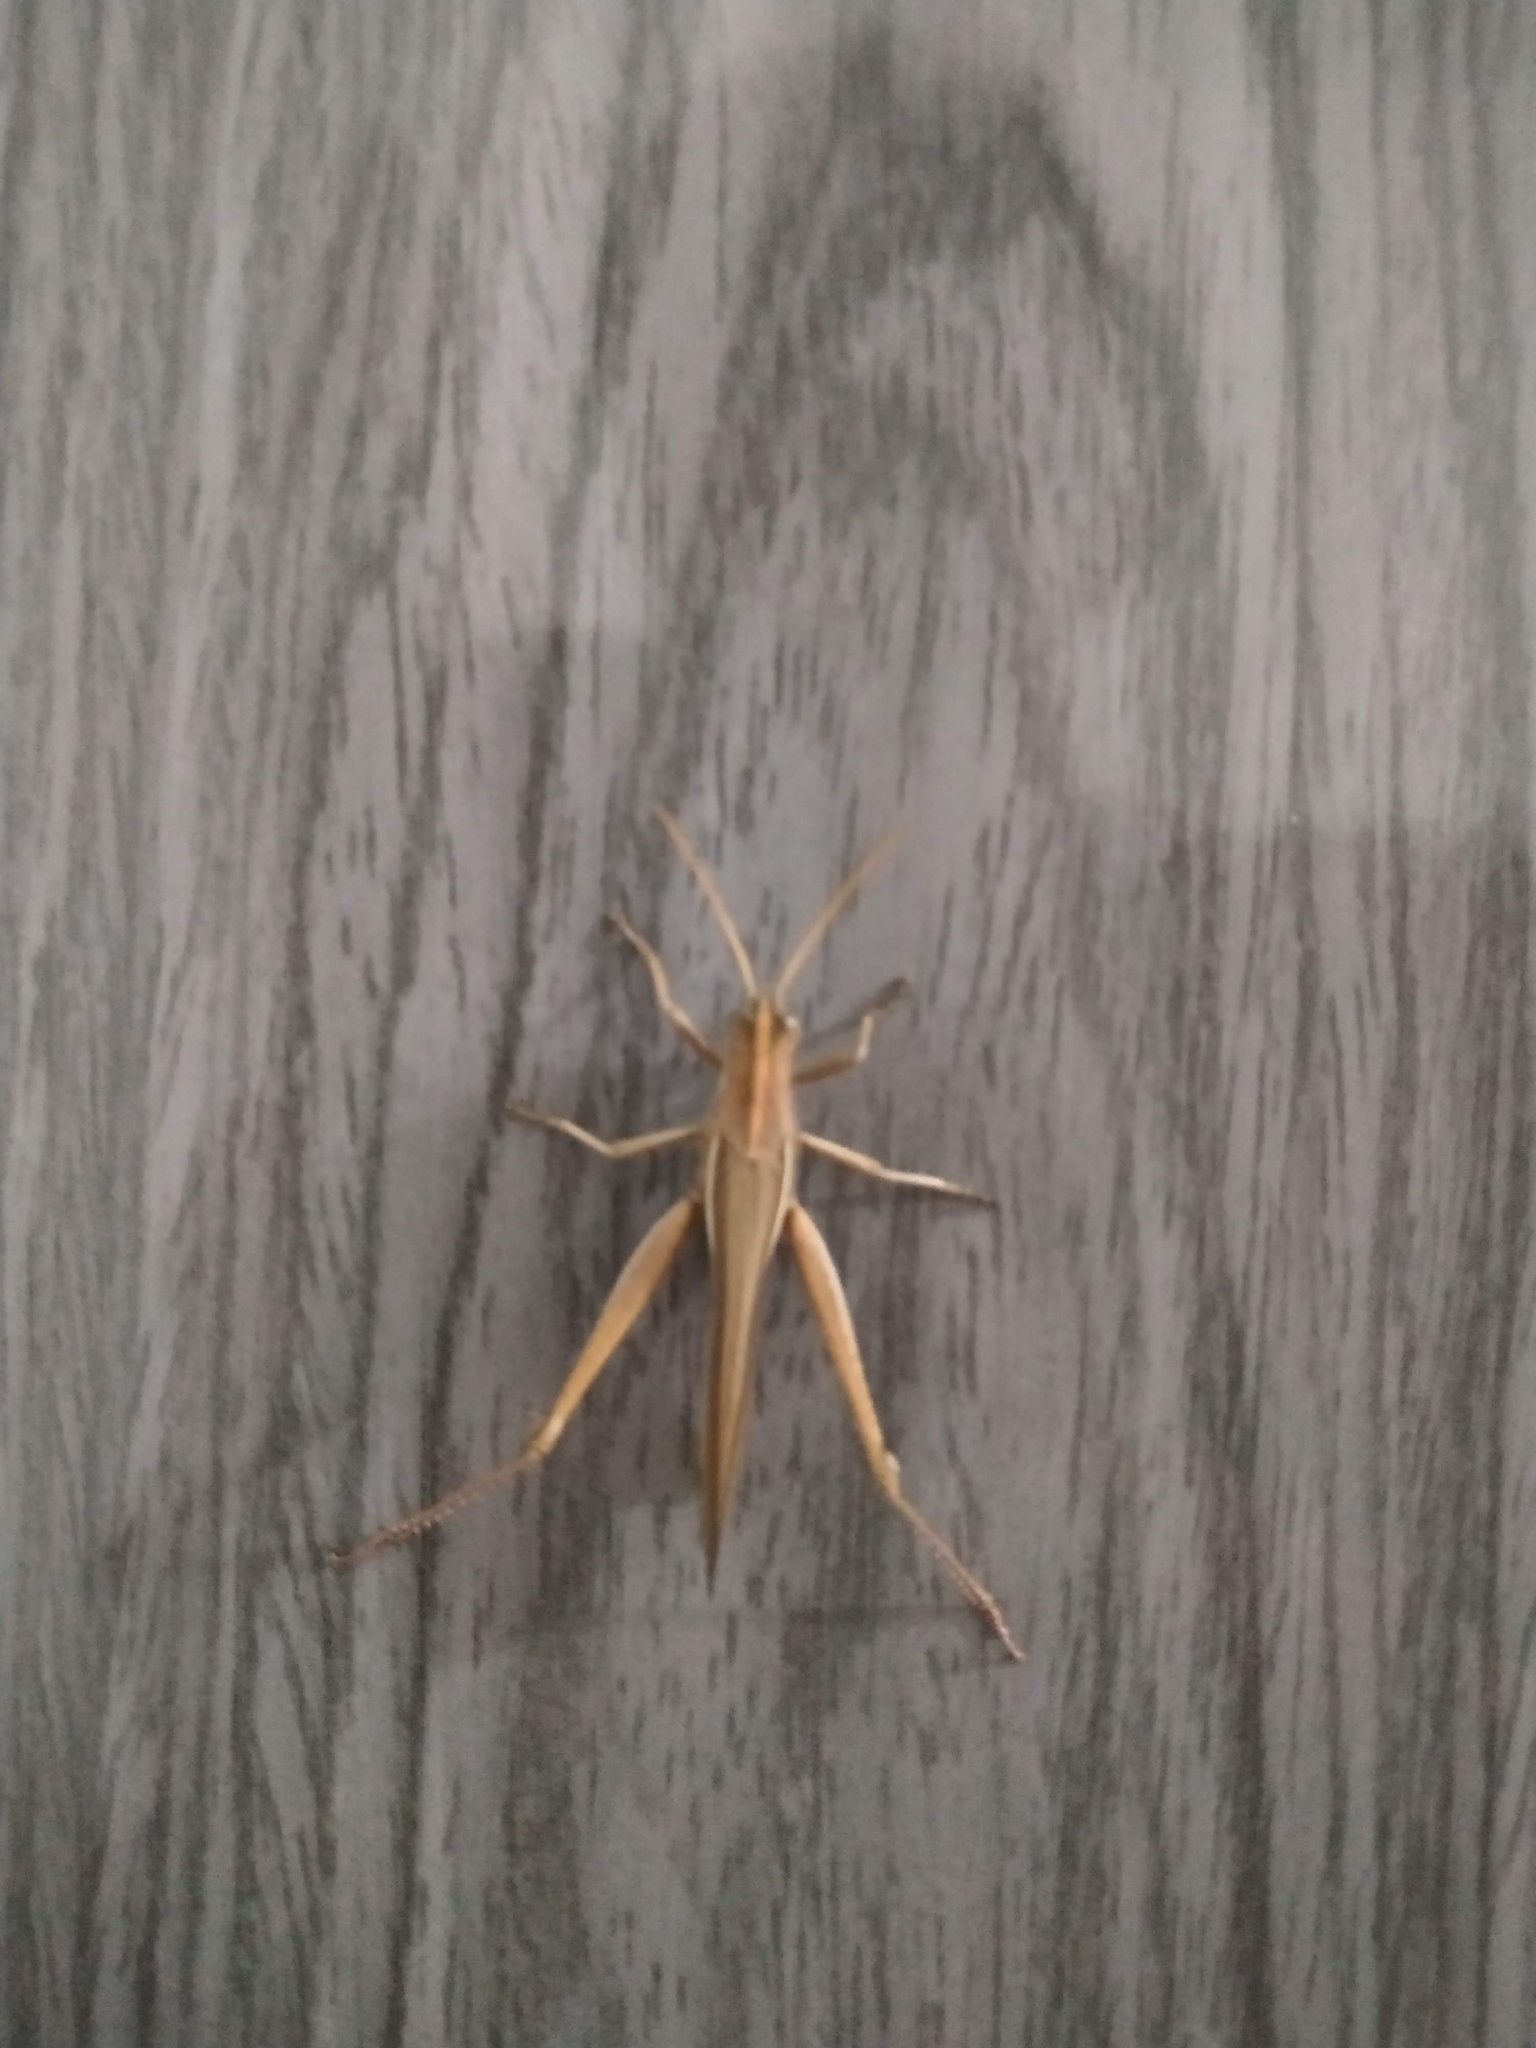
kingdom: Animalia
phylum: Arthropoda
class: Insecta
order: Orthoptera
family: Acrididae
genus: Schistocerca
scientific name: Schistocerca flavofasciata
